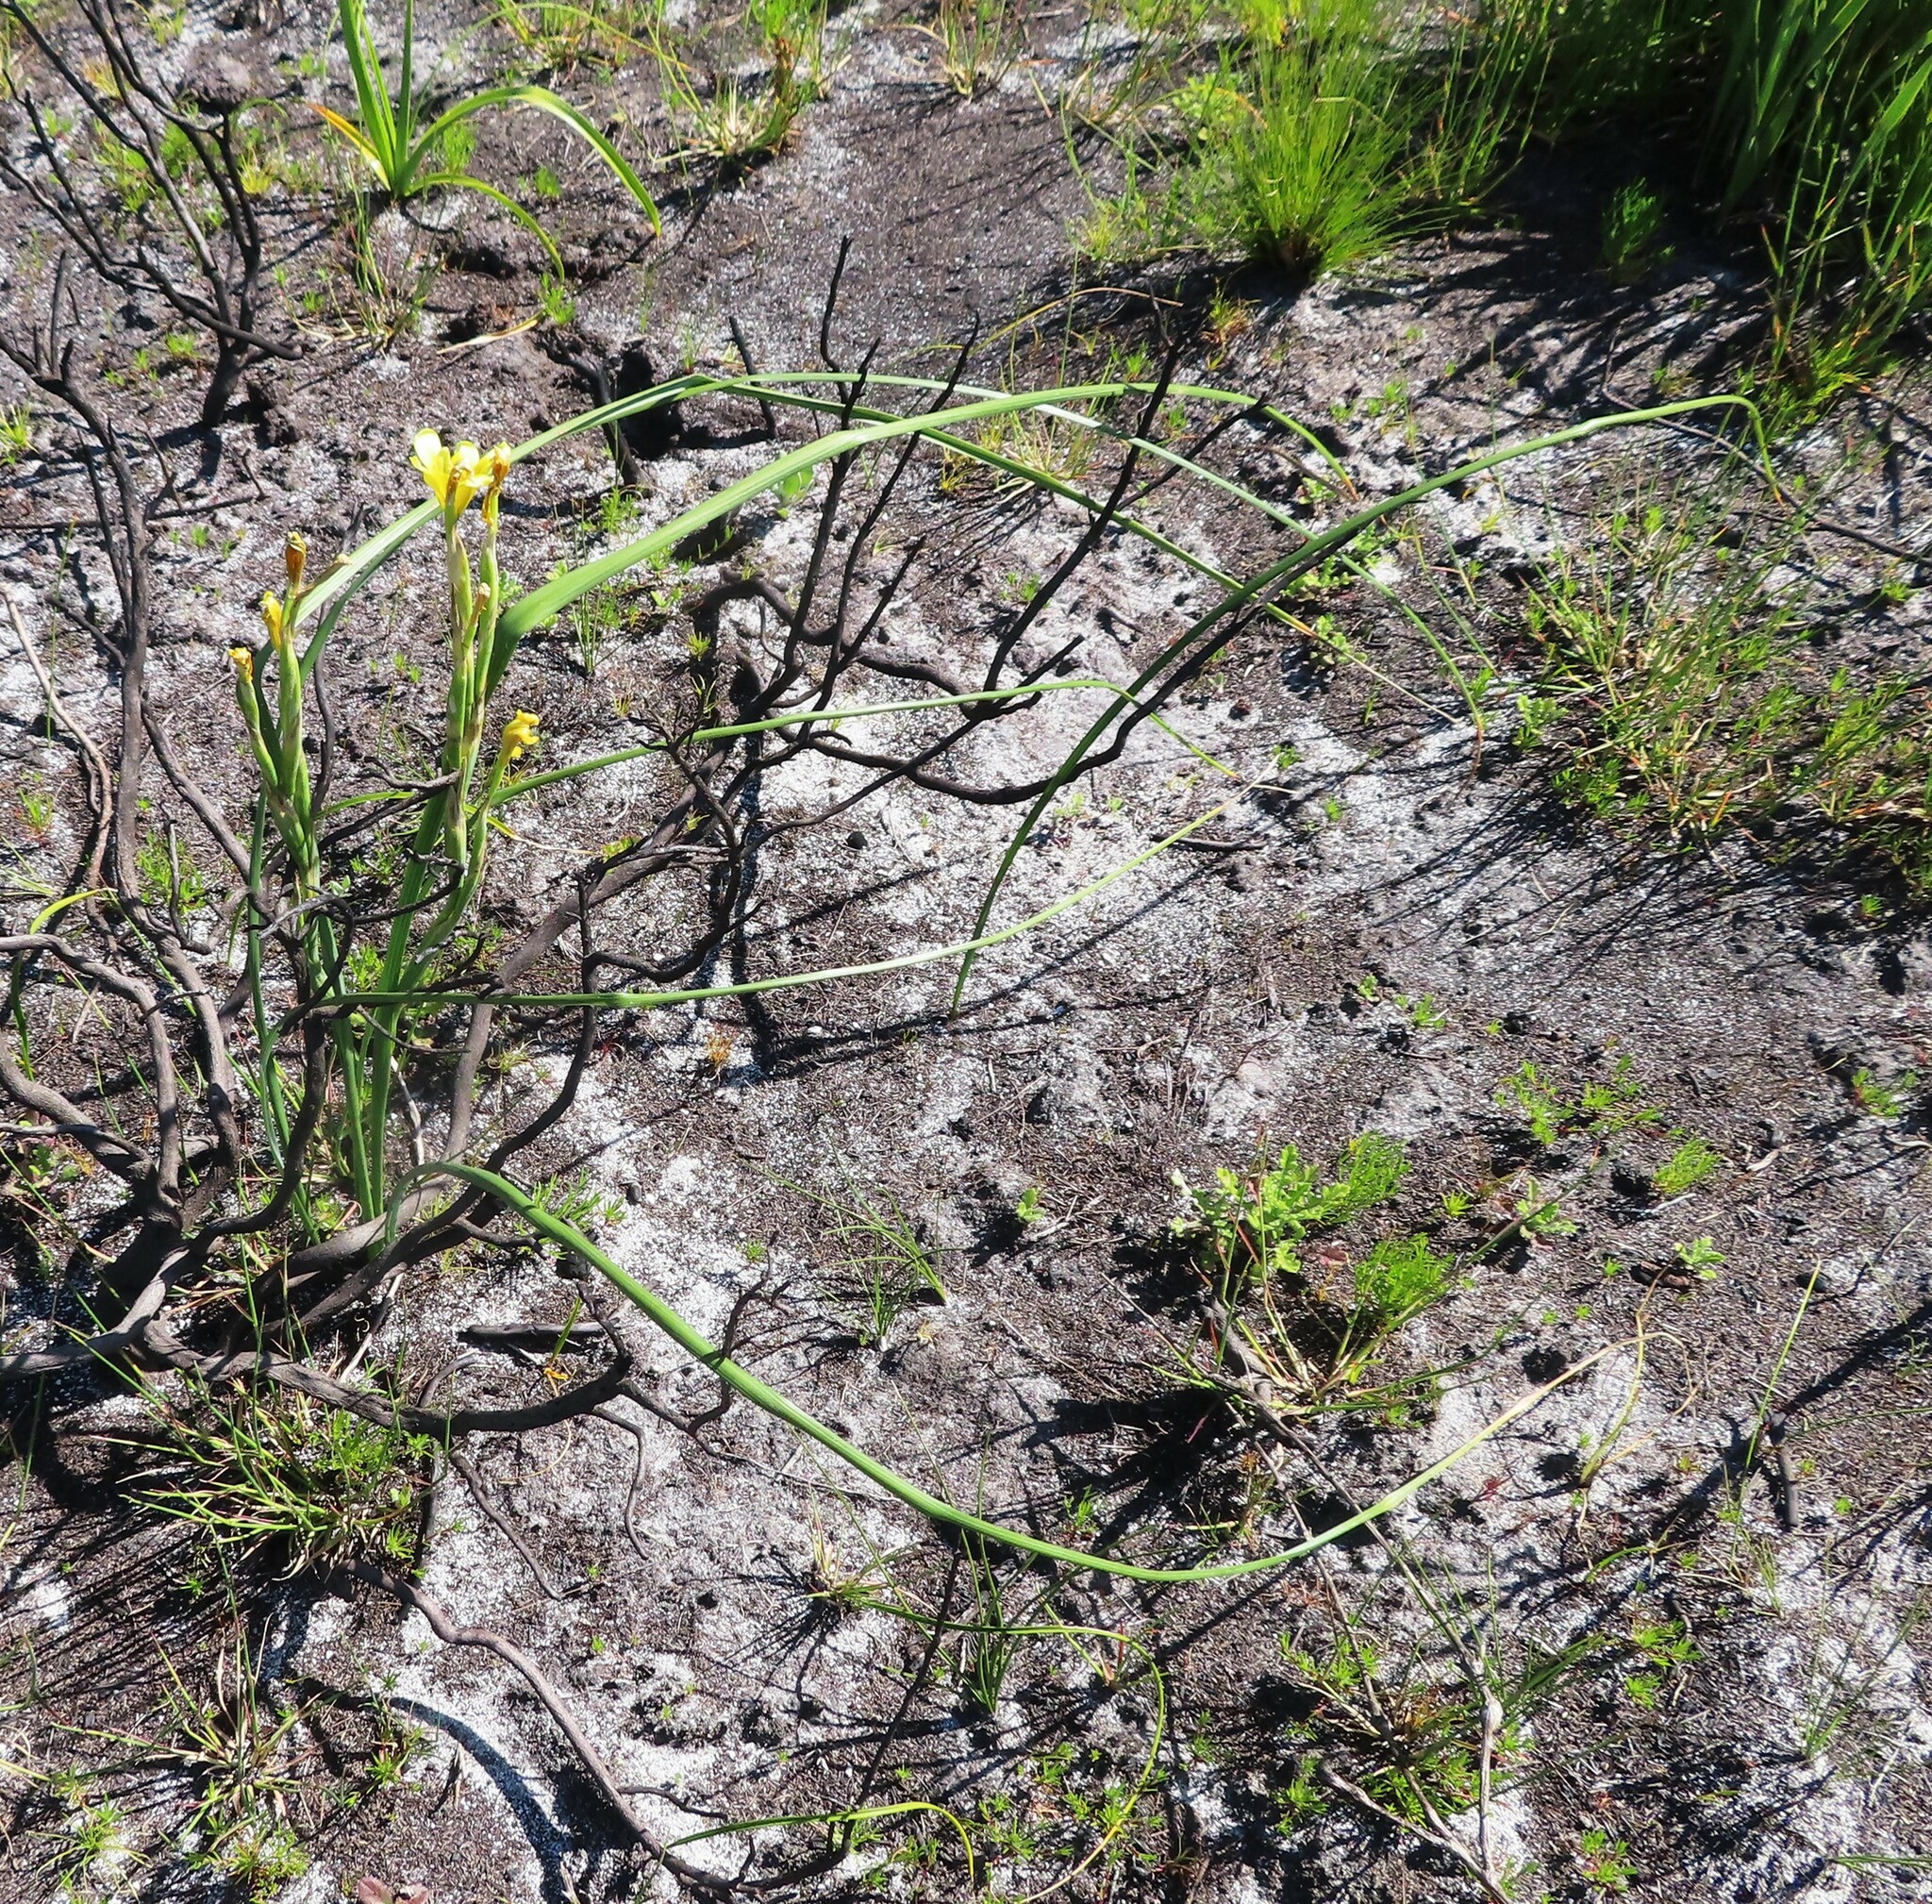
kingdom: Plantae
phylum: Tracheophyta
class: Liliopsida
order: Asparagales
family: Iridaceae
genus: Moraea
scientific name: Moraea ochroleuca
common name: Red tulp
